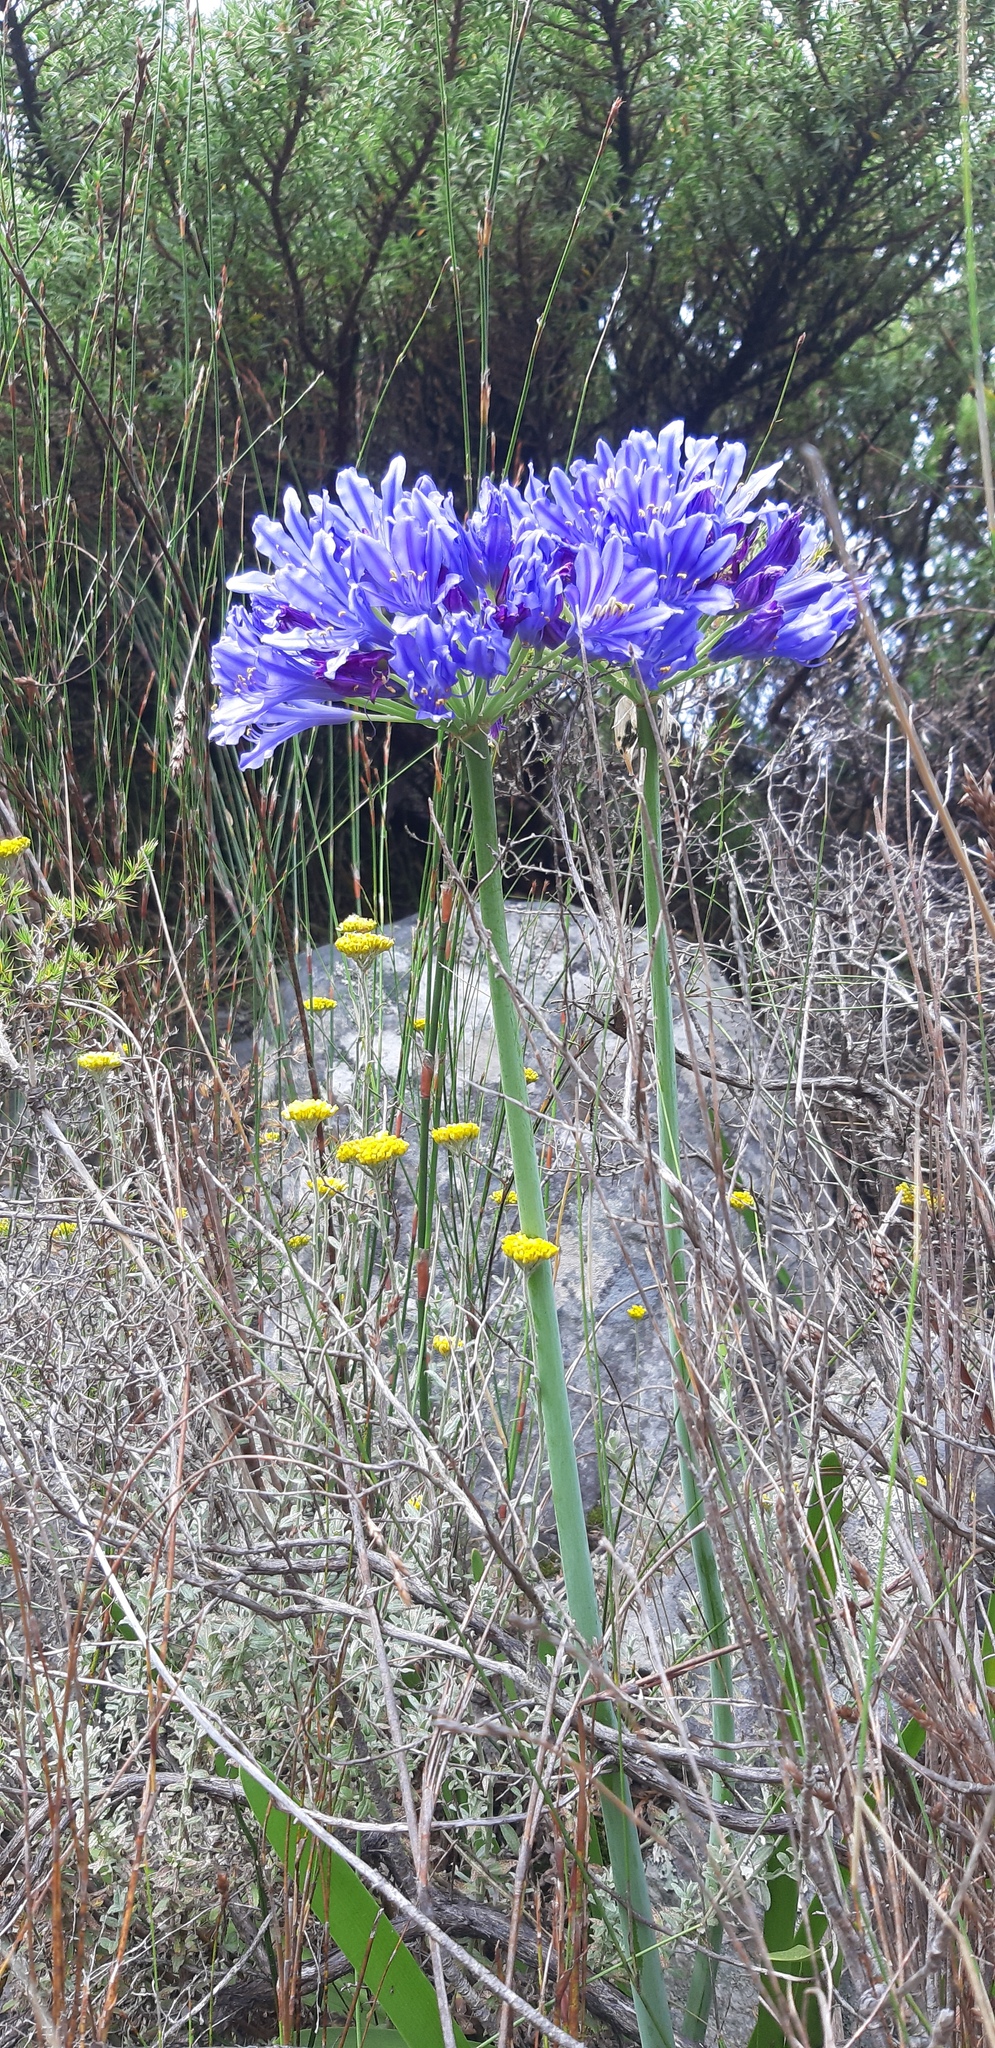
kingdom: Plantae
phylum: Tracheophyta
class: Liliopsida
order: Asparagales
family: Amaryllidaceae
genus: Agapanthus
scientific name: Agapanthus africanus
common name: Lily-of-the-nile
